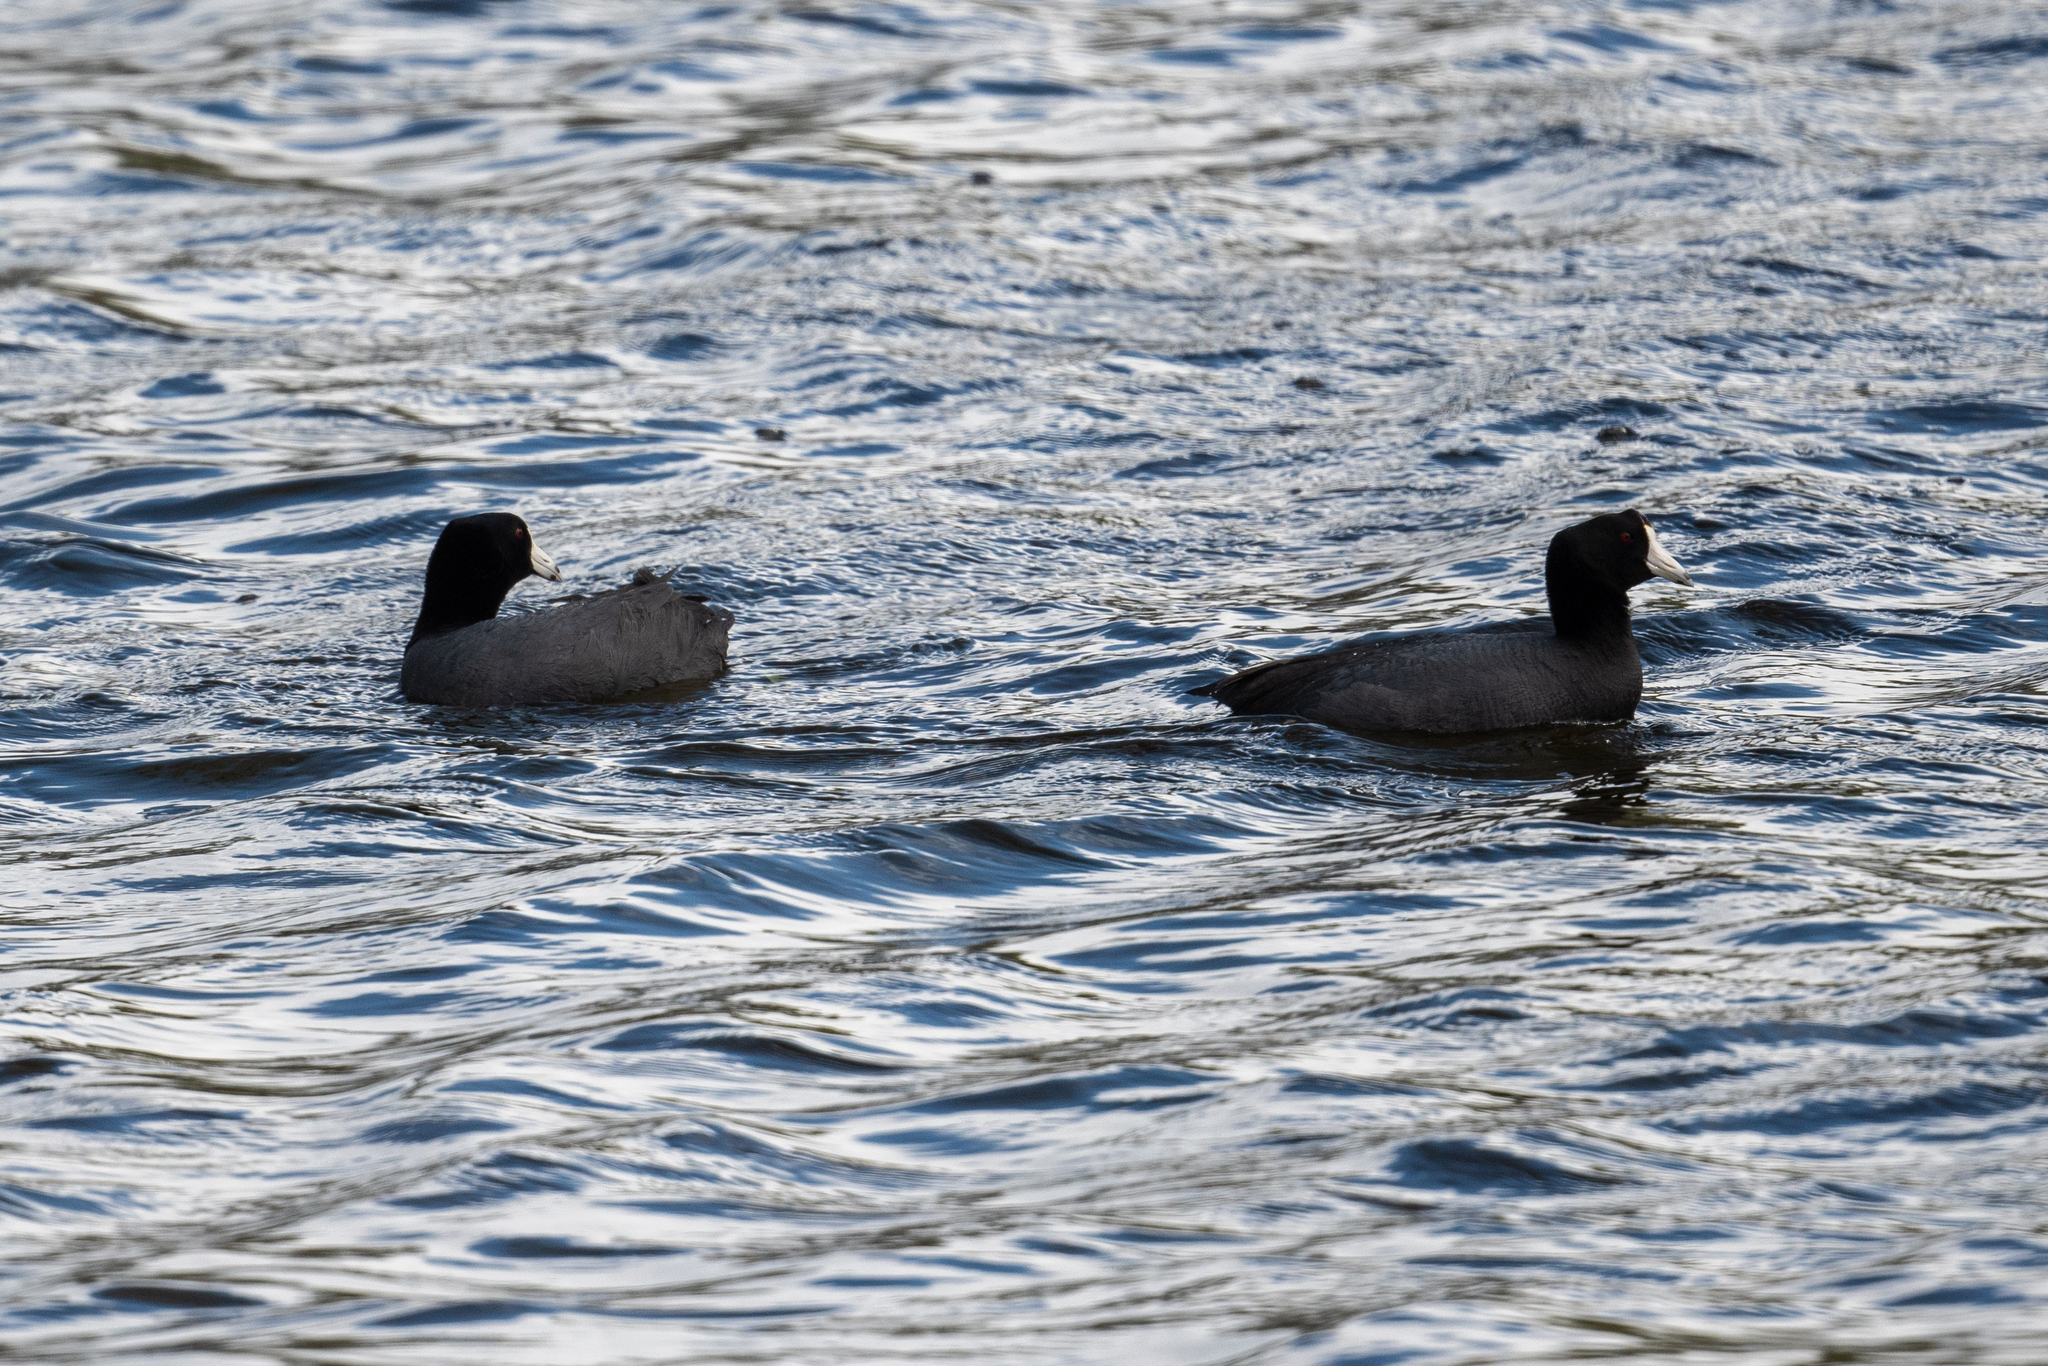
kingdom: Animalia
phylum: Chordata
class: Aves
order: Gruiformes
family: Rallidae
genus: Fulica
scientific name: Fulica americana
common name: American coot
